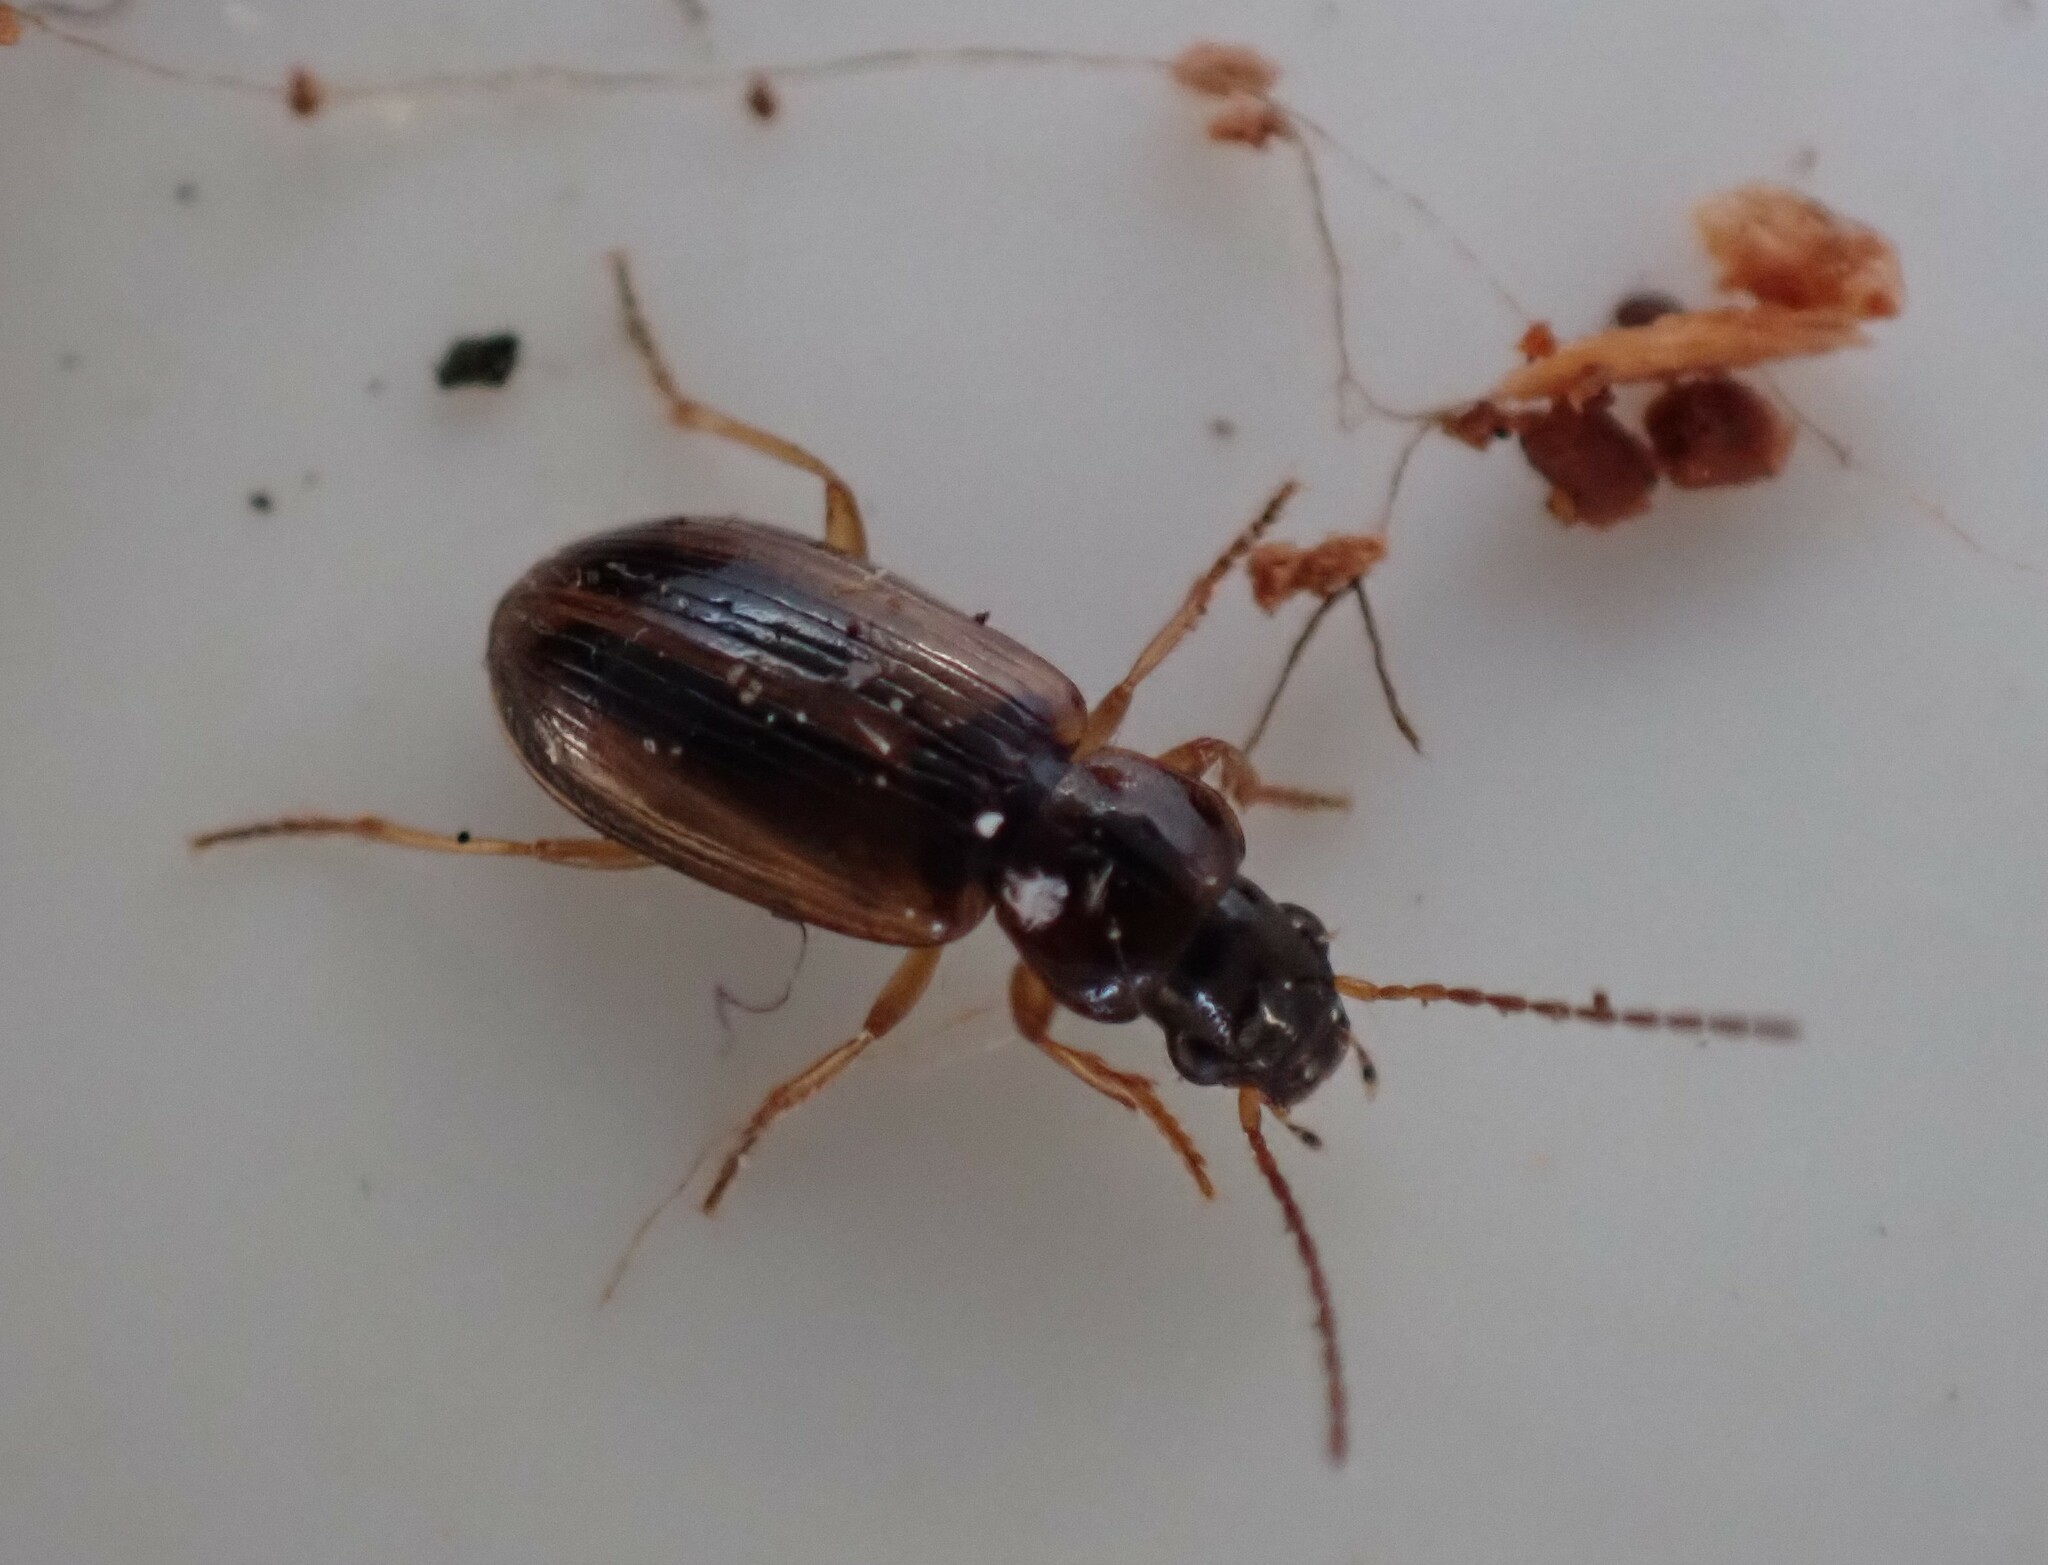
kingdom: Animalia
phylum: Arthropoda
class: Insecta
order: Coleoptera
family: Carabidae
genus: Dicheirotrichus
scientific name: Dicheirotrichus placidus
